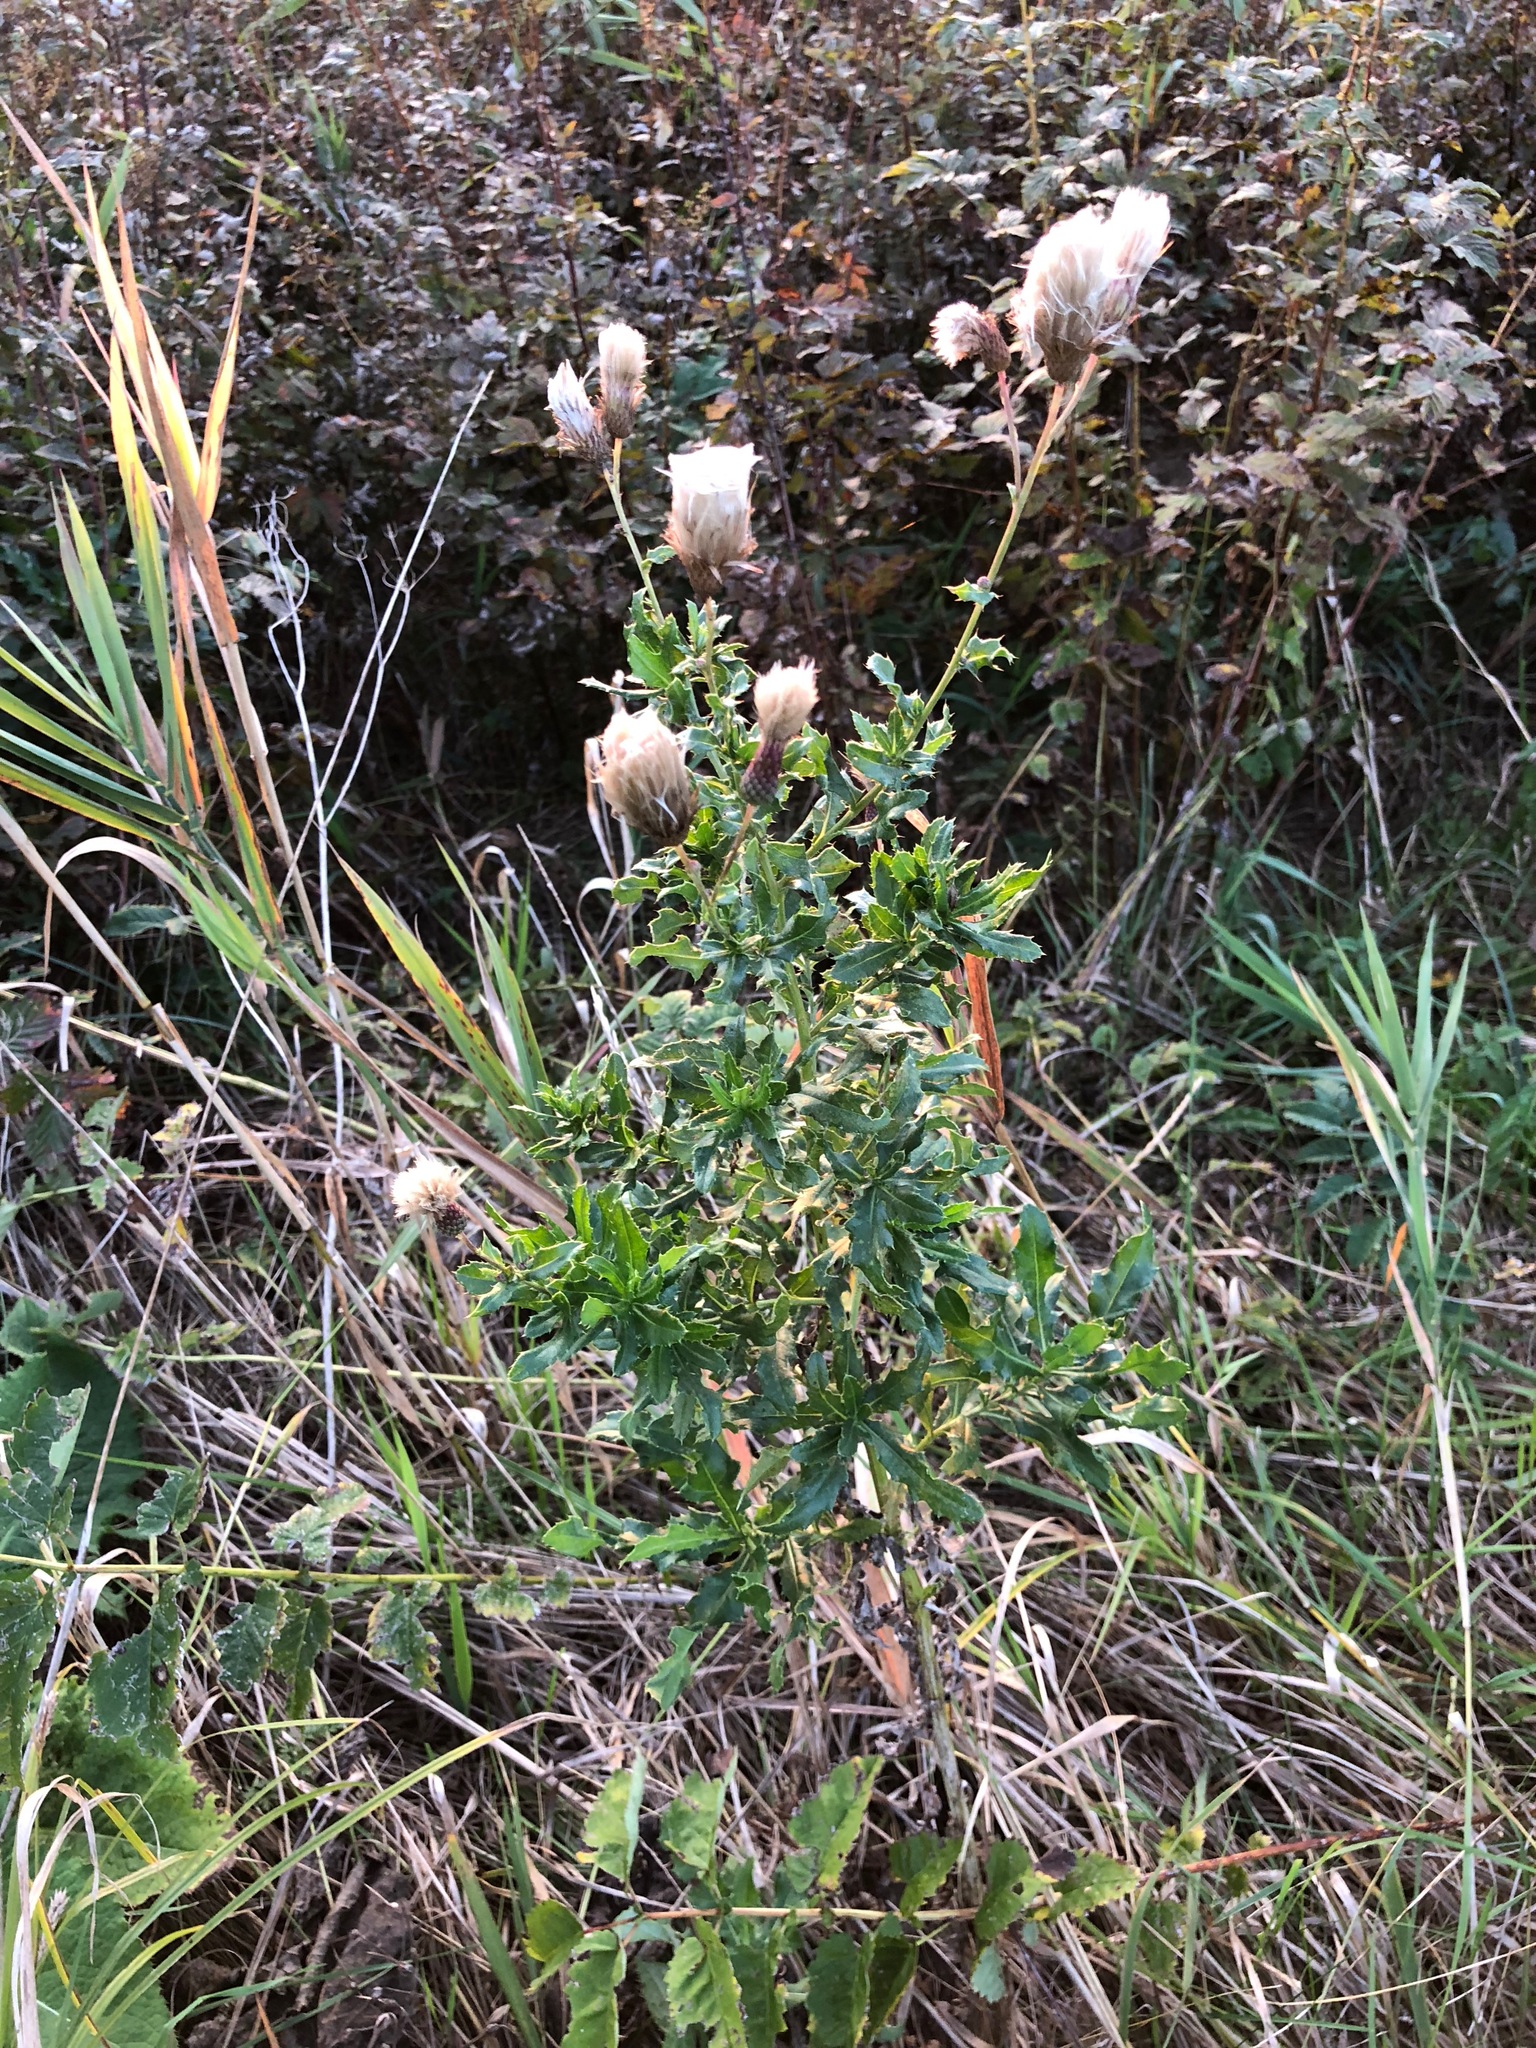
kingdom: Plantae
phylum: Tracheophyta
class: Magnoliopsida
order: Asterales
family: Asteraceae
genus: Cirsium
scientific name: Cirsium arvense
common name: Creeping thistle
